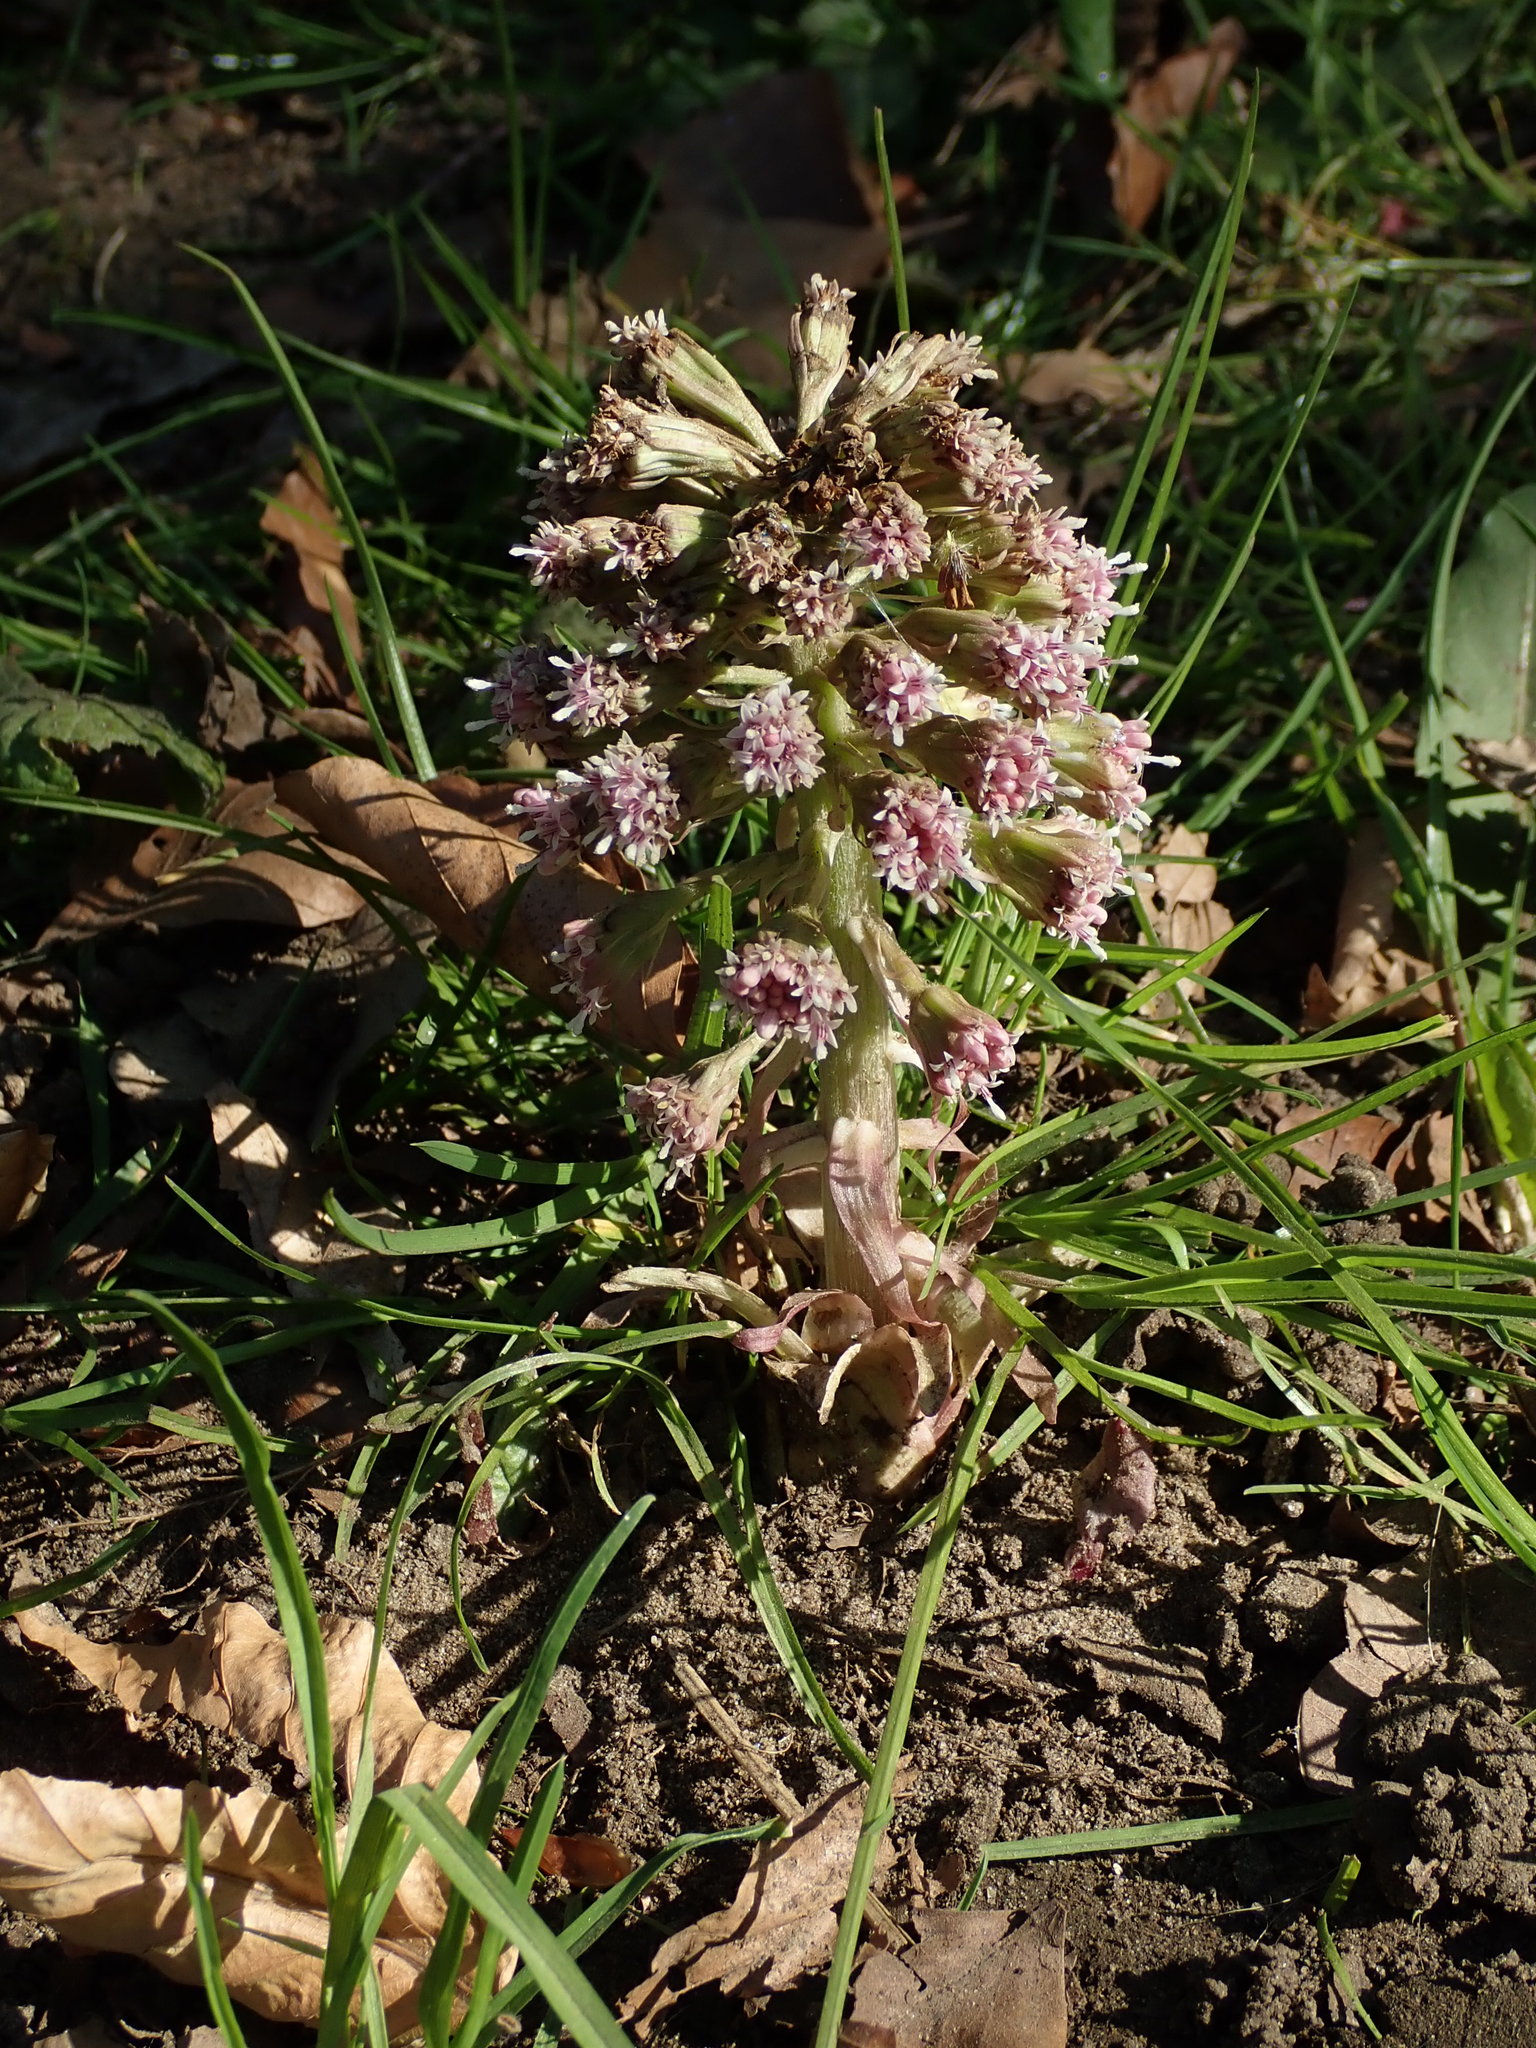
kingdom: Plantae
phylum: Tracheophyta
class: Magnoliopsida
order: Asterales
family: Asteraceae
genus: Petasites
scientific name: Petasites hybridus
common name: Butterbur
